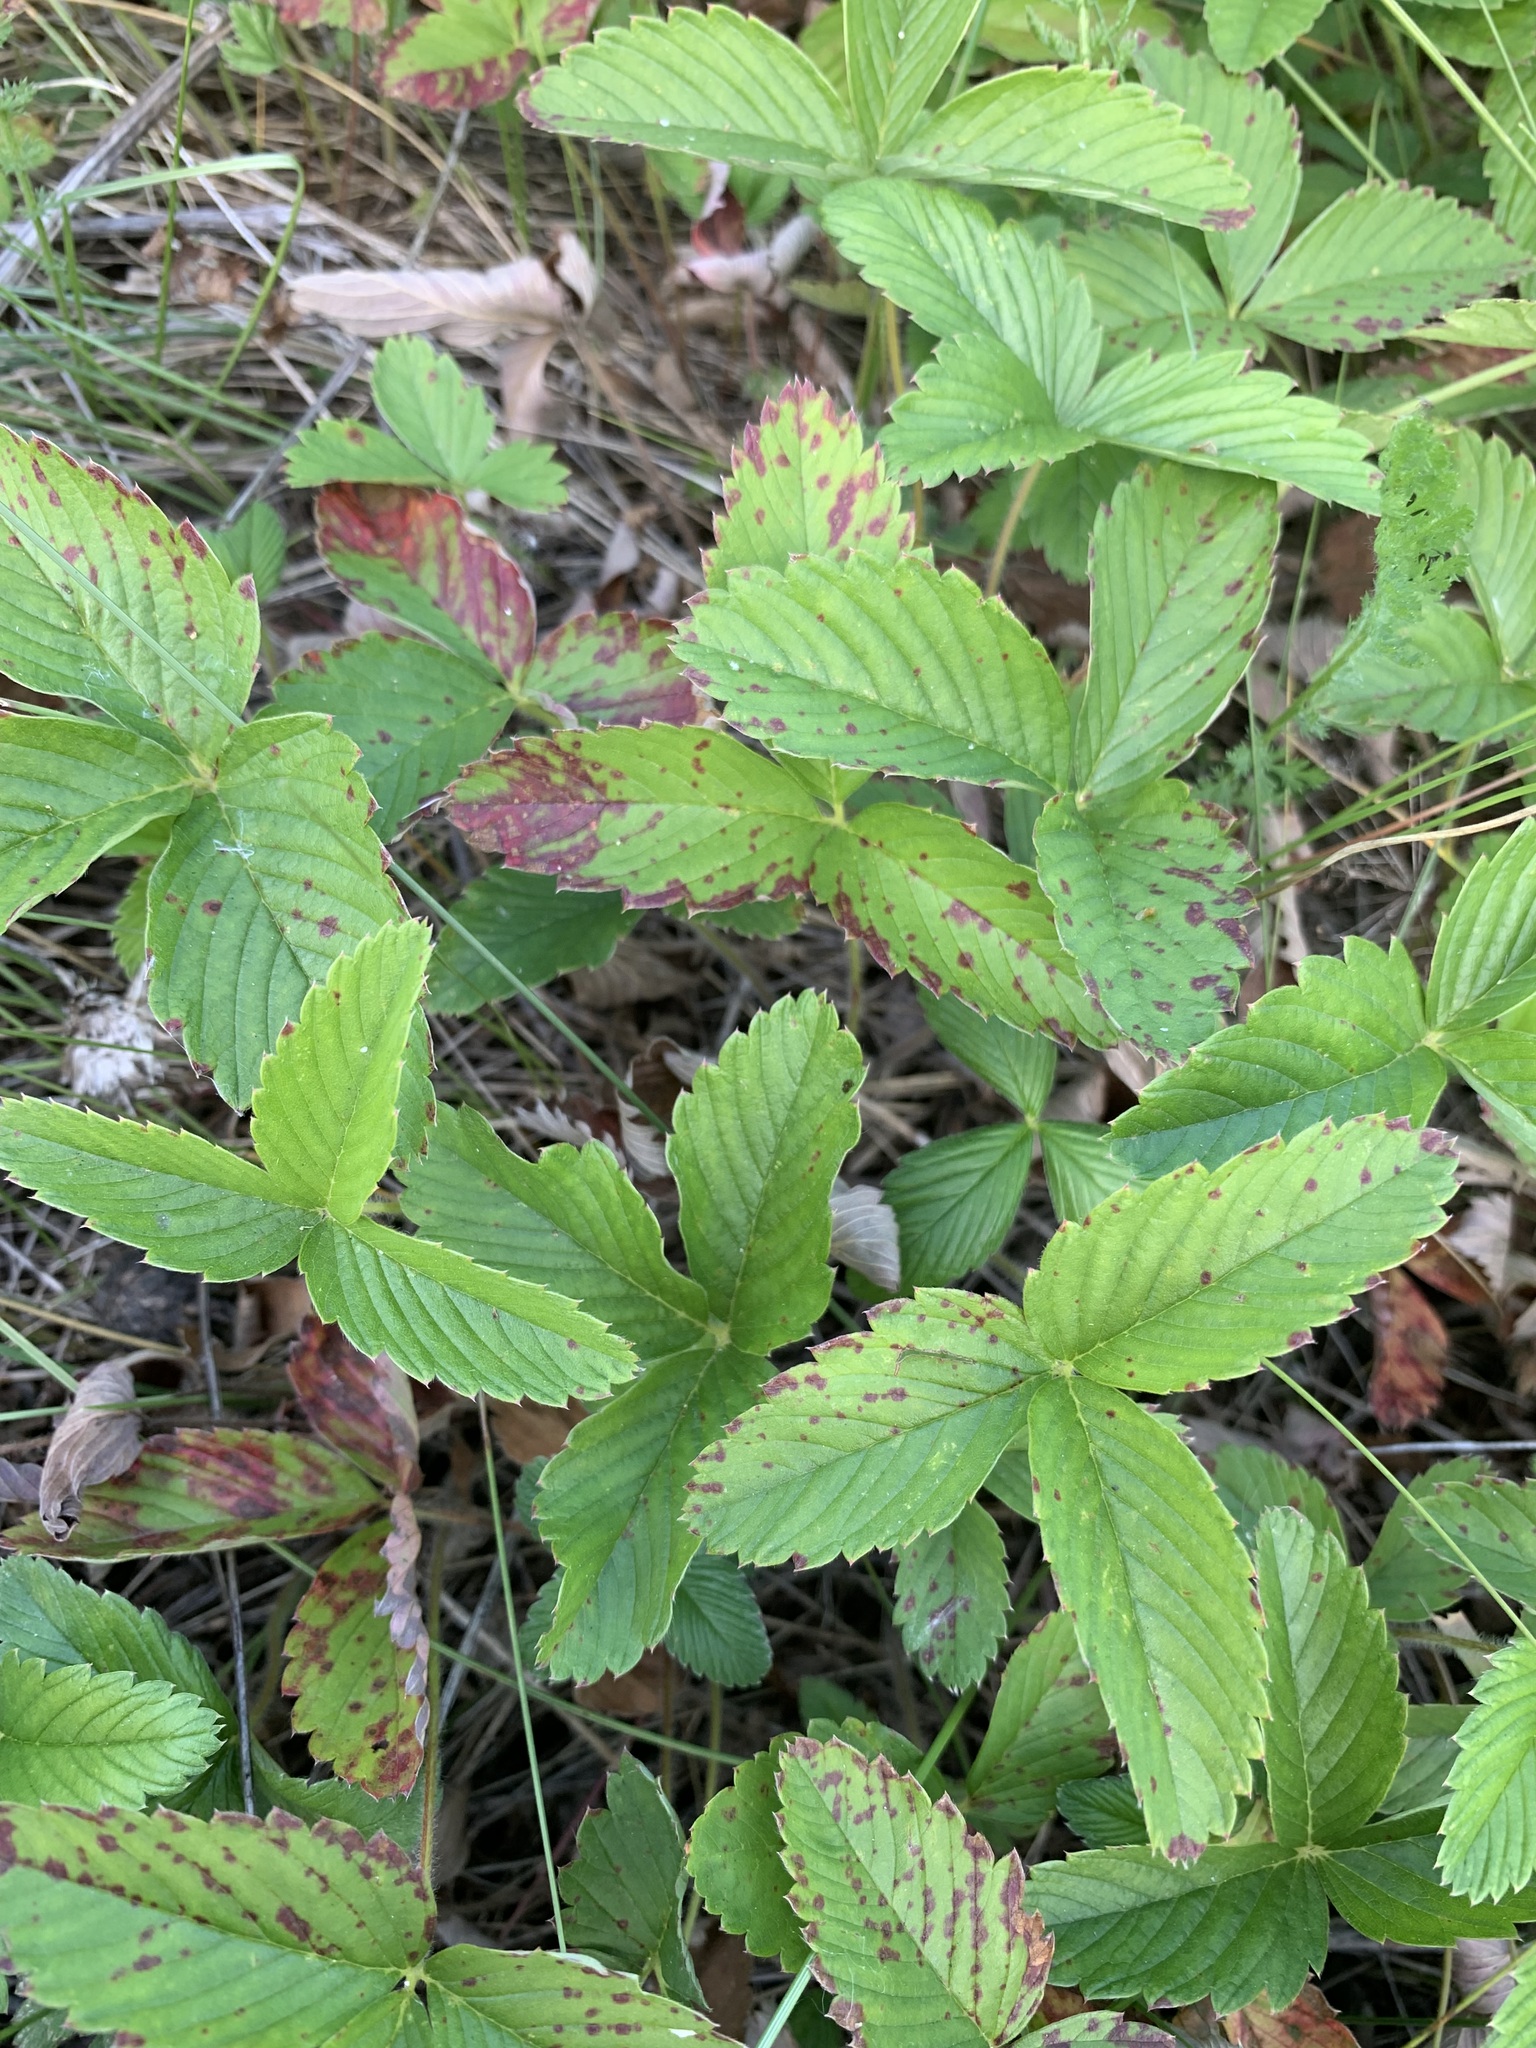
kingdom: Plantae
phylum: Tracheophyta
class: Magnoliopsida
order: Rosales
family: Rosaceae
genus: Fragaria
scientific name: Fragaria viridis
